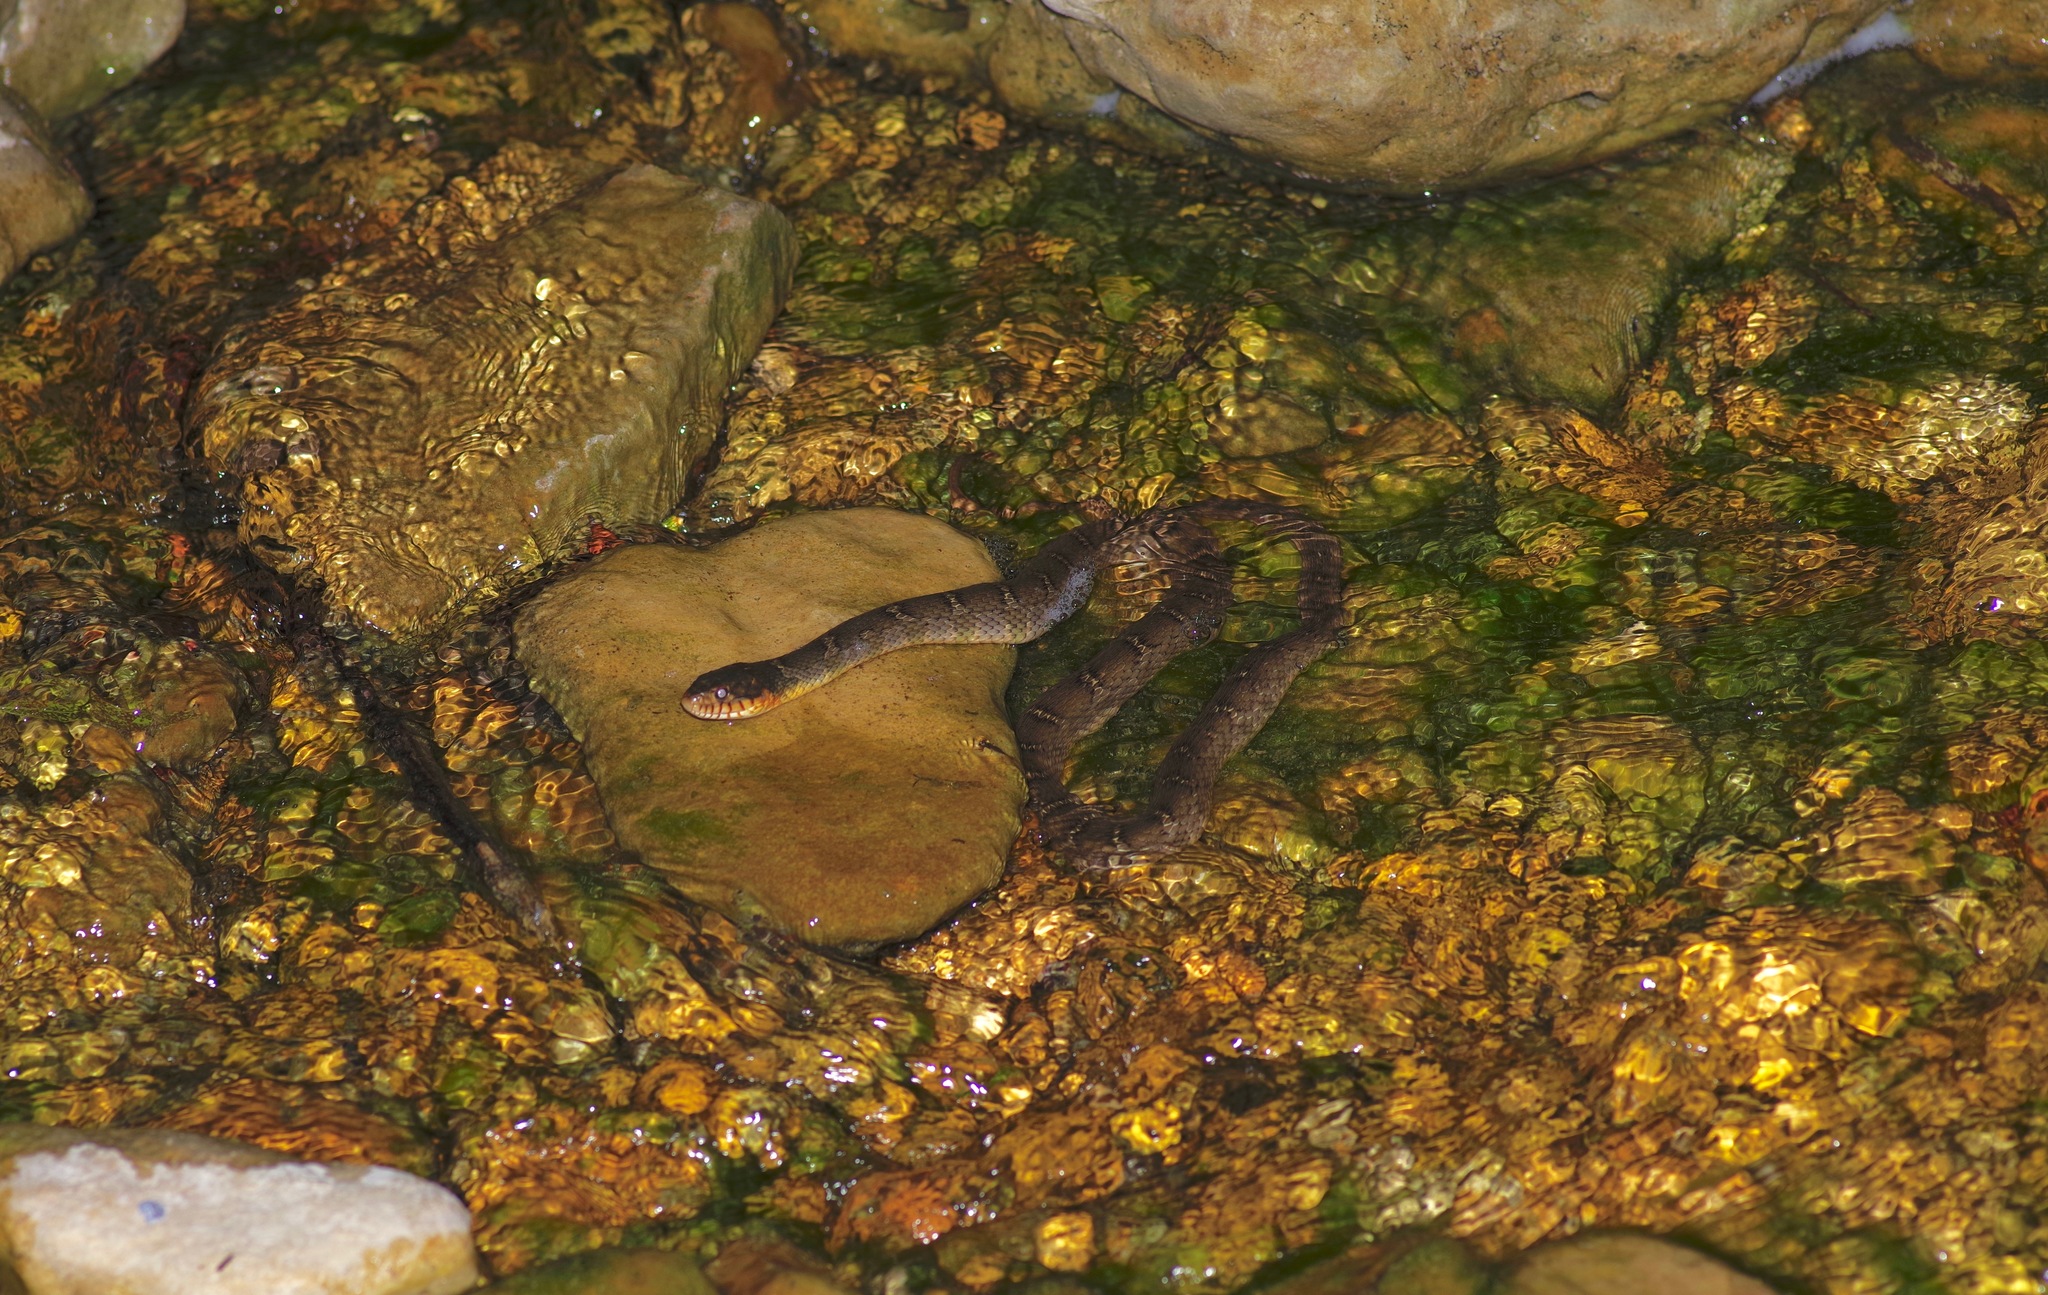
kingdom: Animalia
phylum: Chordata
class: Squamata
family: Colubridae
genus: Nerodia
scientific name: Nerodia erythrogaster
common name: Plainbelly water snake
